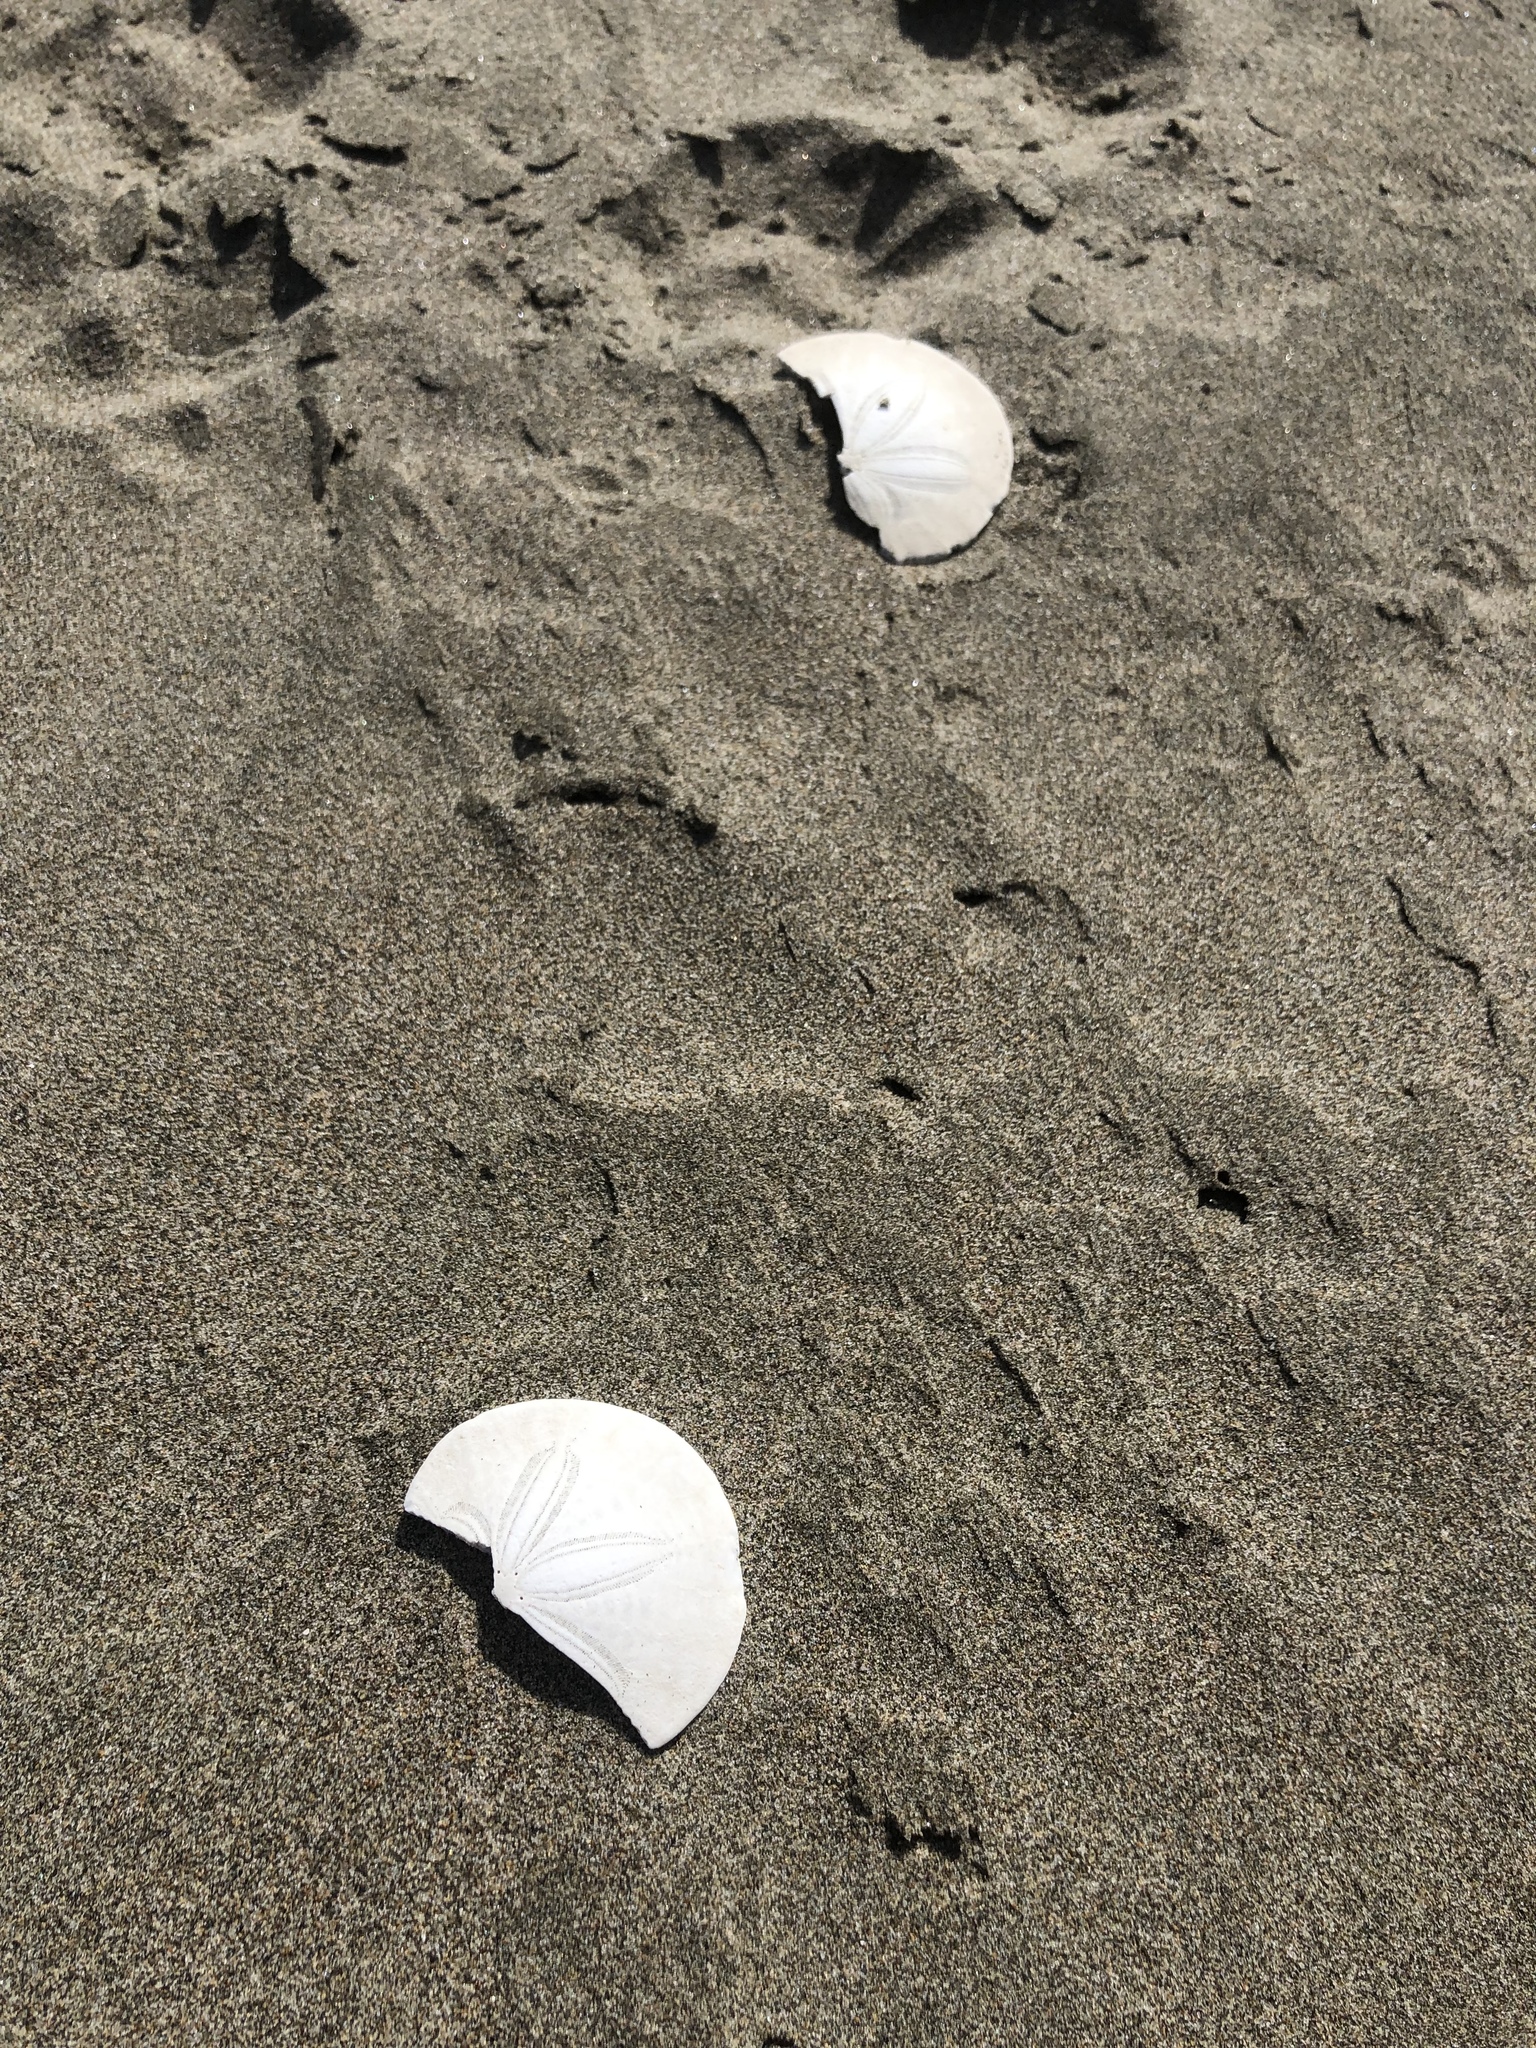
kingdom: Animalia
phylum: Echinodermata
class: Echinoidea
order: Echinolampadacea
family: Dendrasteridae
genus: Dendraster
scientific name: Dendraster excentricus
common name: Eccentric sand dollar sea urchin
